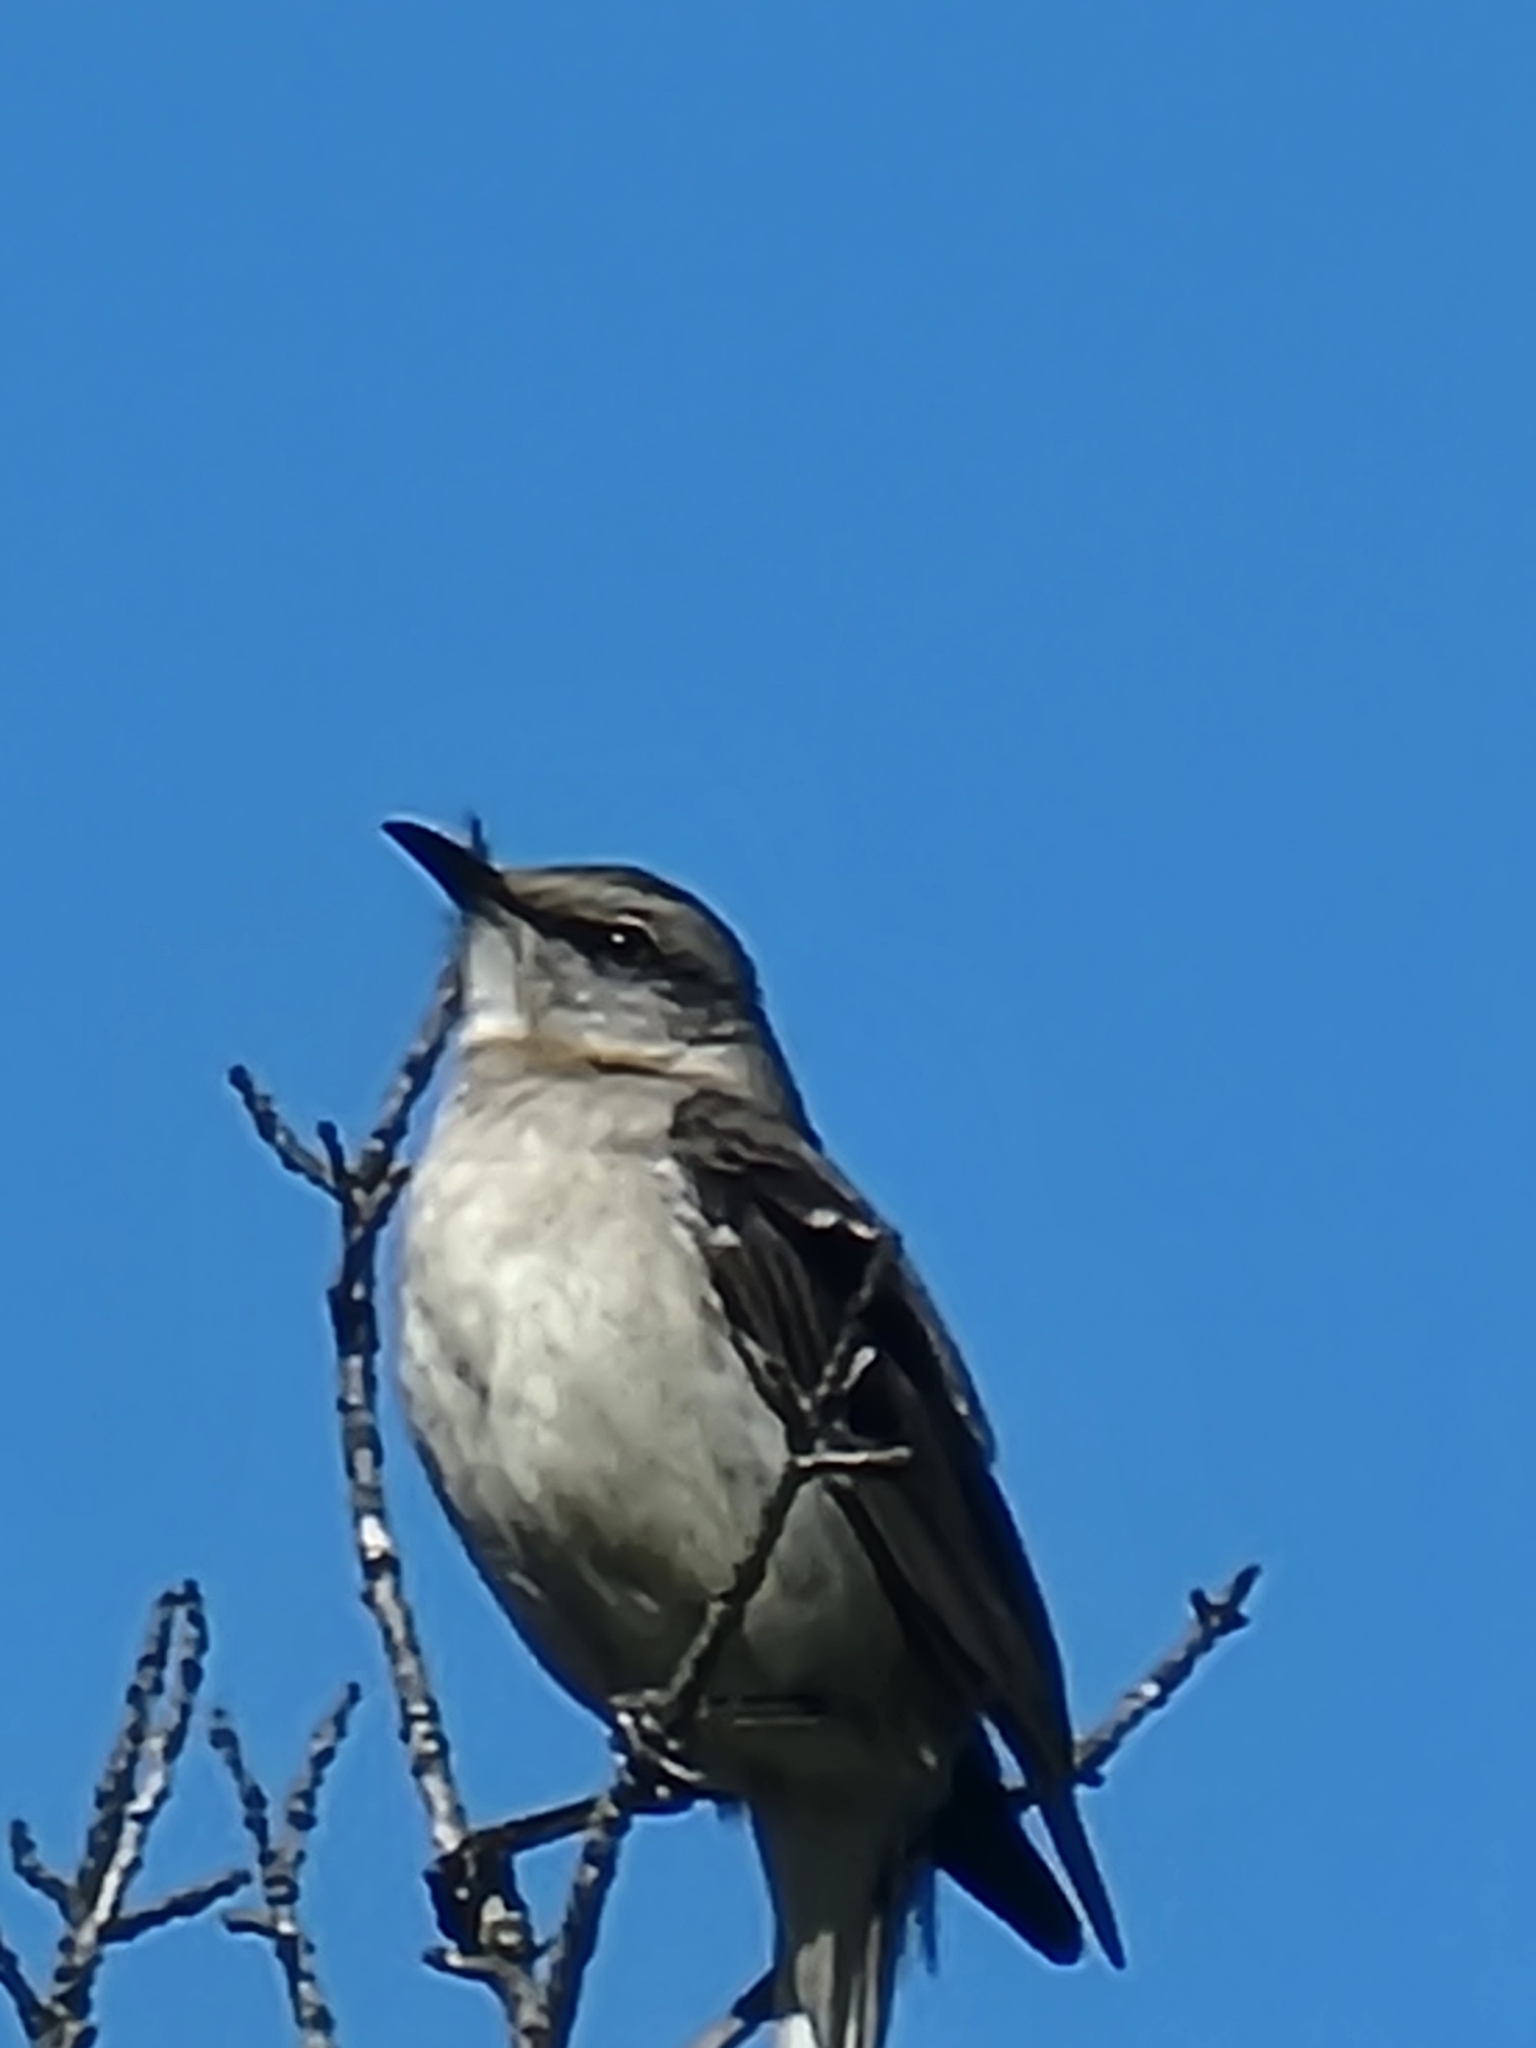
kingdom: Animalia
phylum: Chordata
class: Aves
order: Passeriformes
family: Mimidae
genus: Mimus
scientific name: Mimus polyglottos
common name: Northern mockingbird
